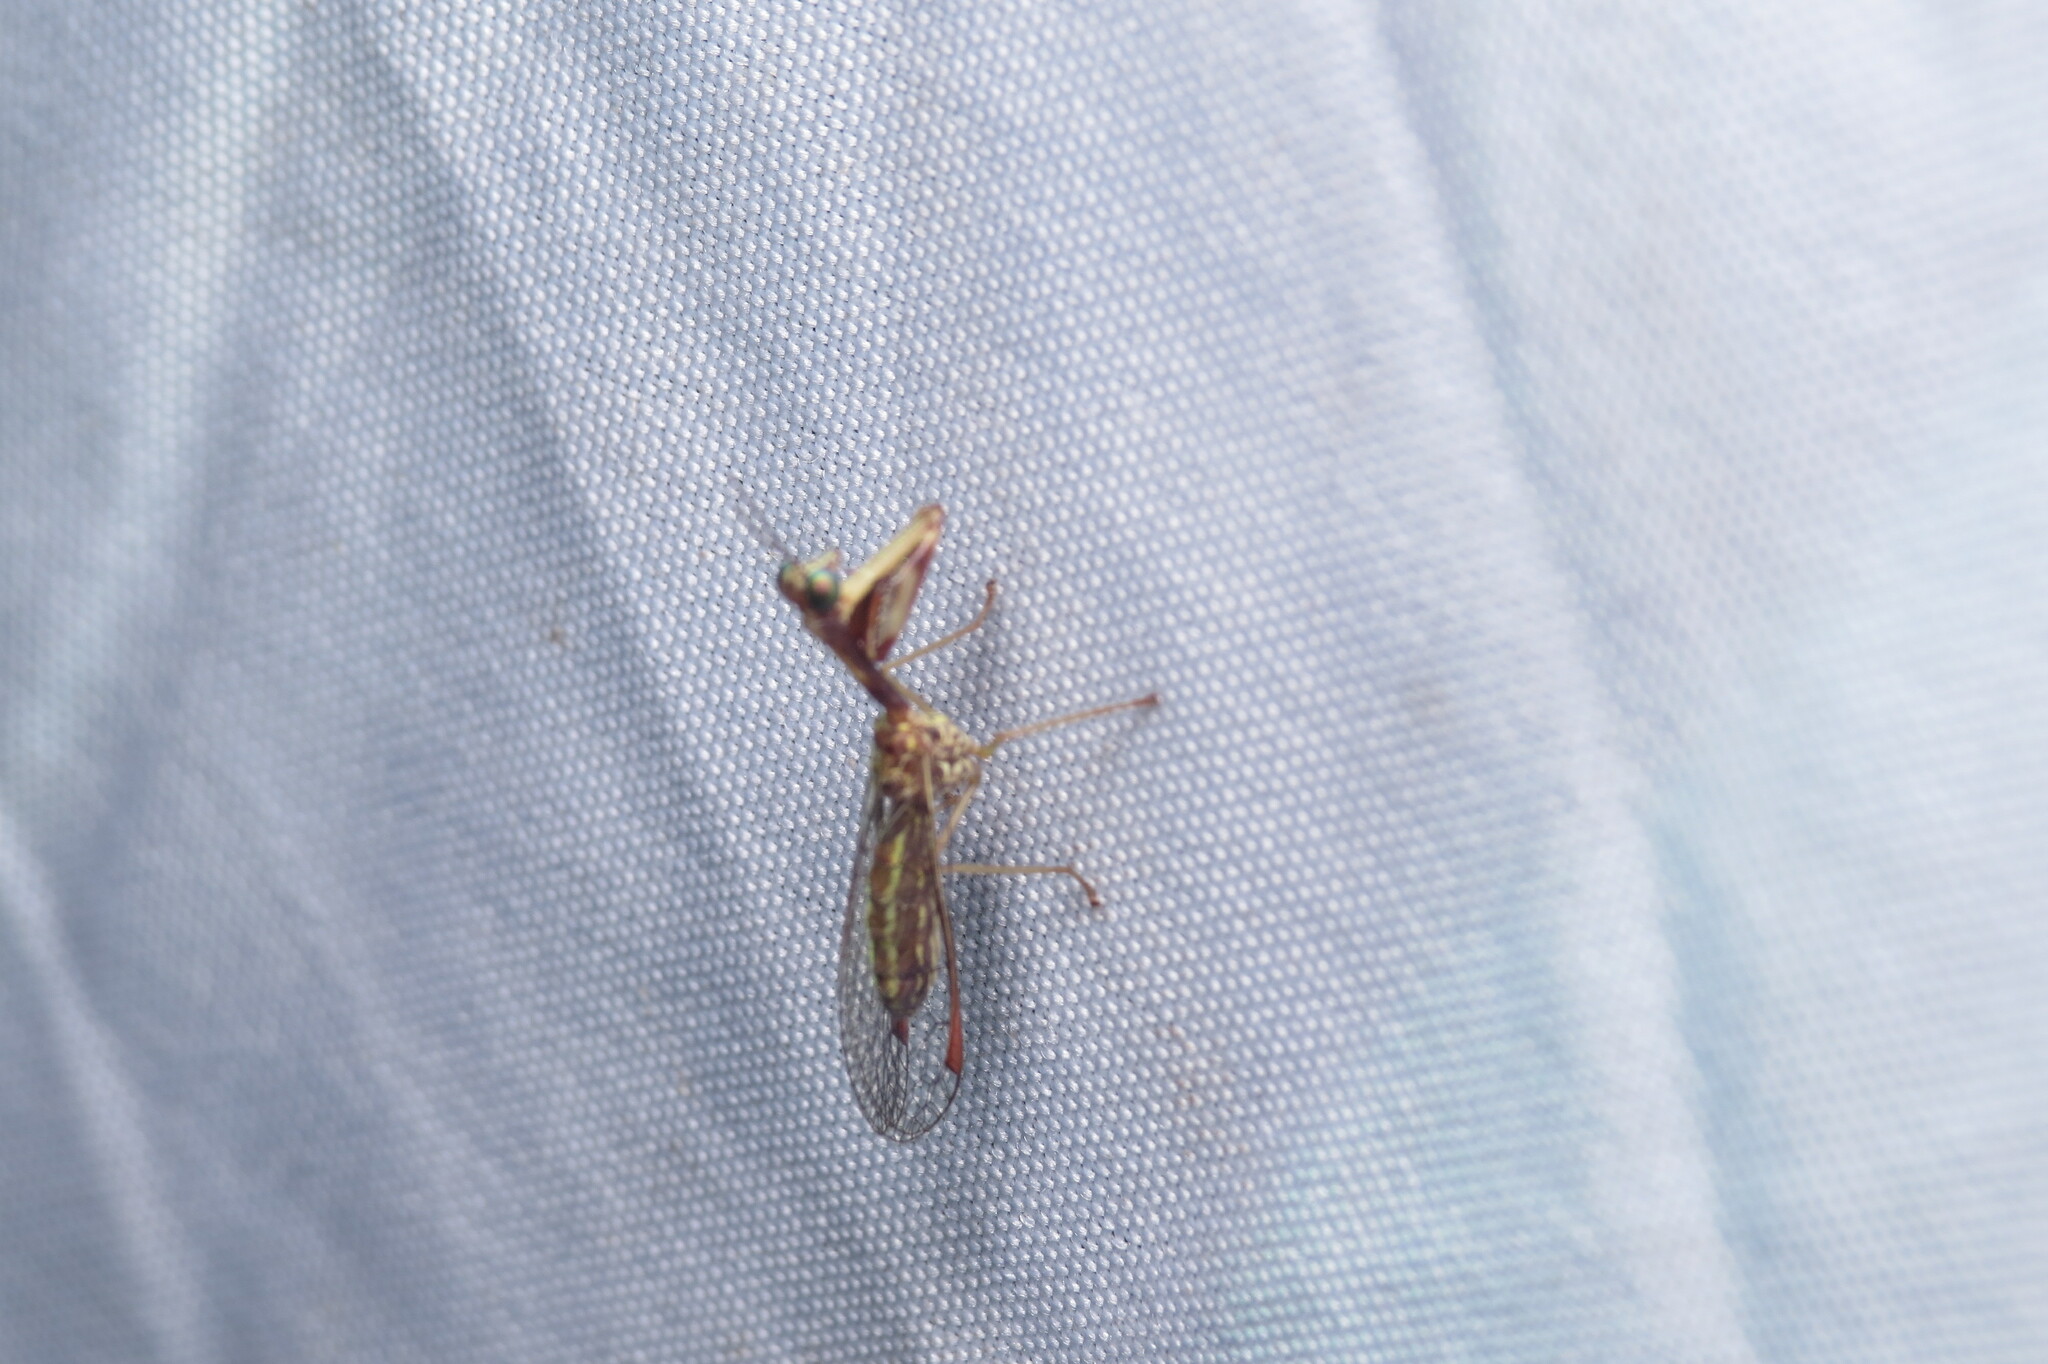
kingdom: Animalia
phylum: Arthropoda
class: Insecta
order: Neuroptera
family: Mantispidae
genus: Leptomantispa
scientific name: Leptomantispa pulchella
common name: Stevens's mantidfly
